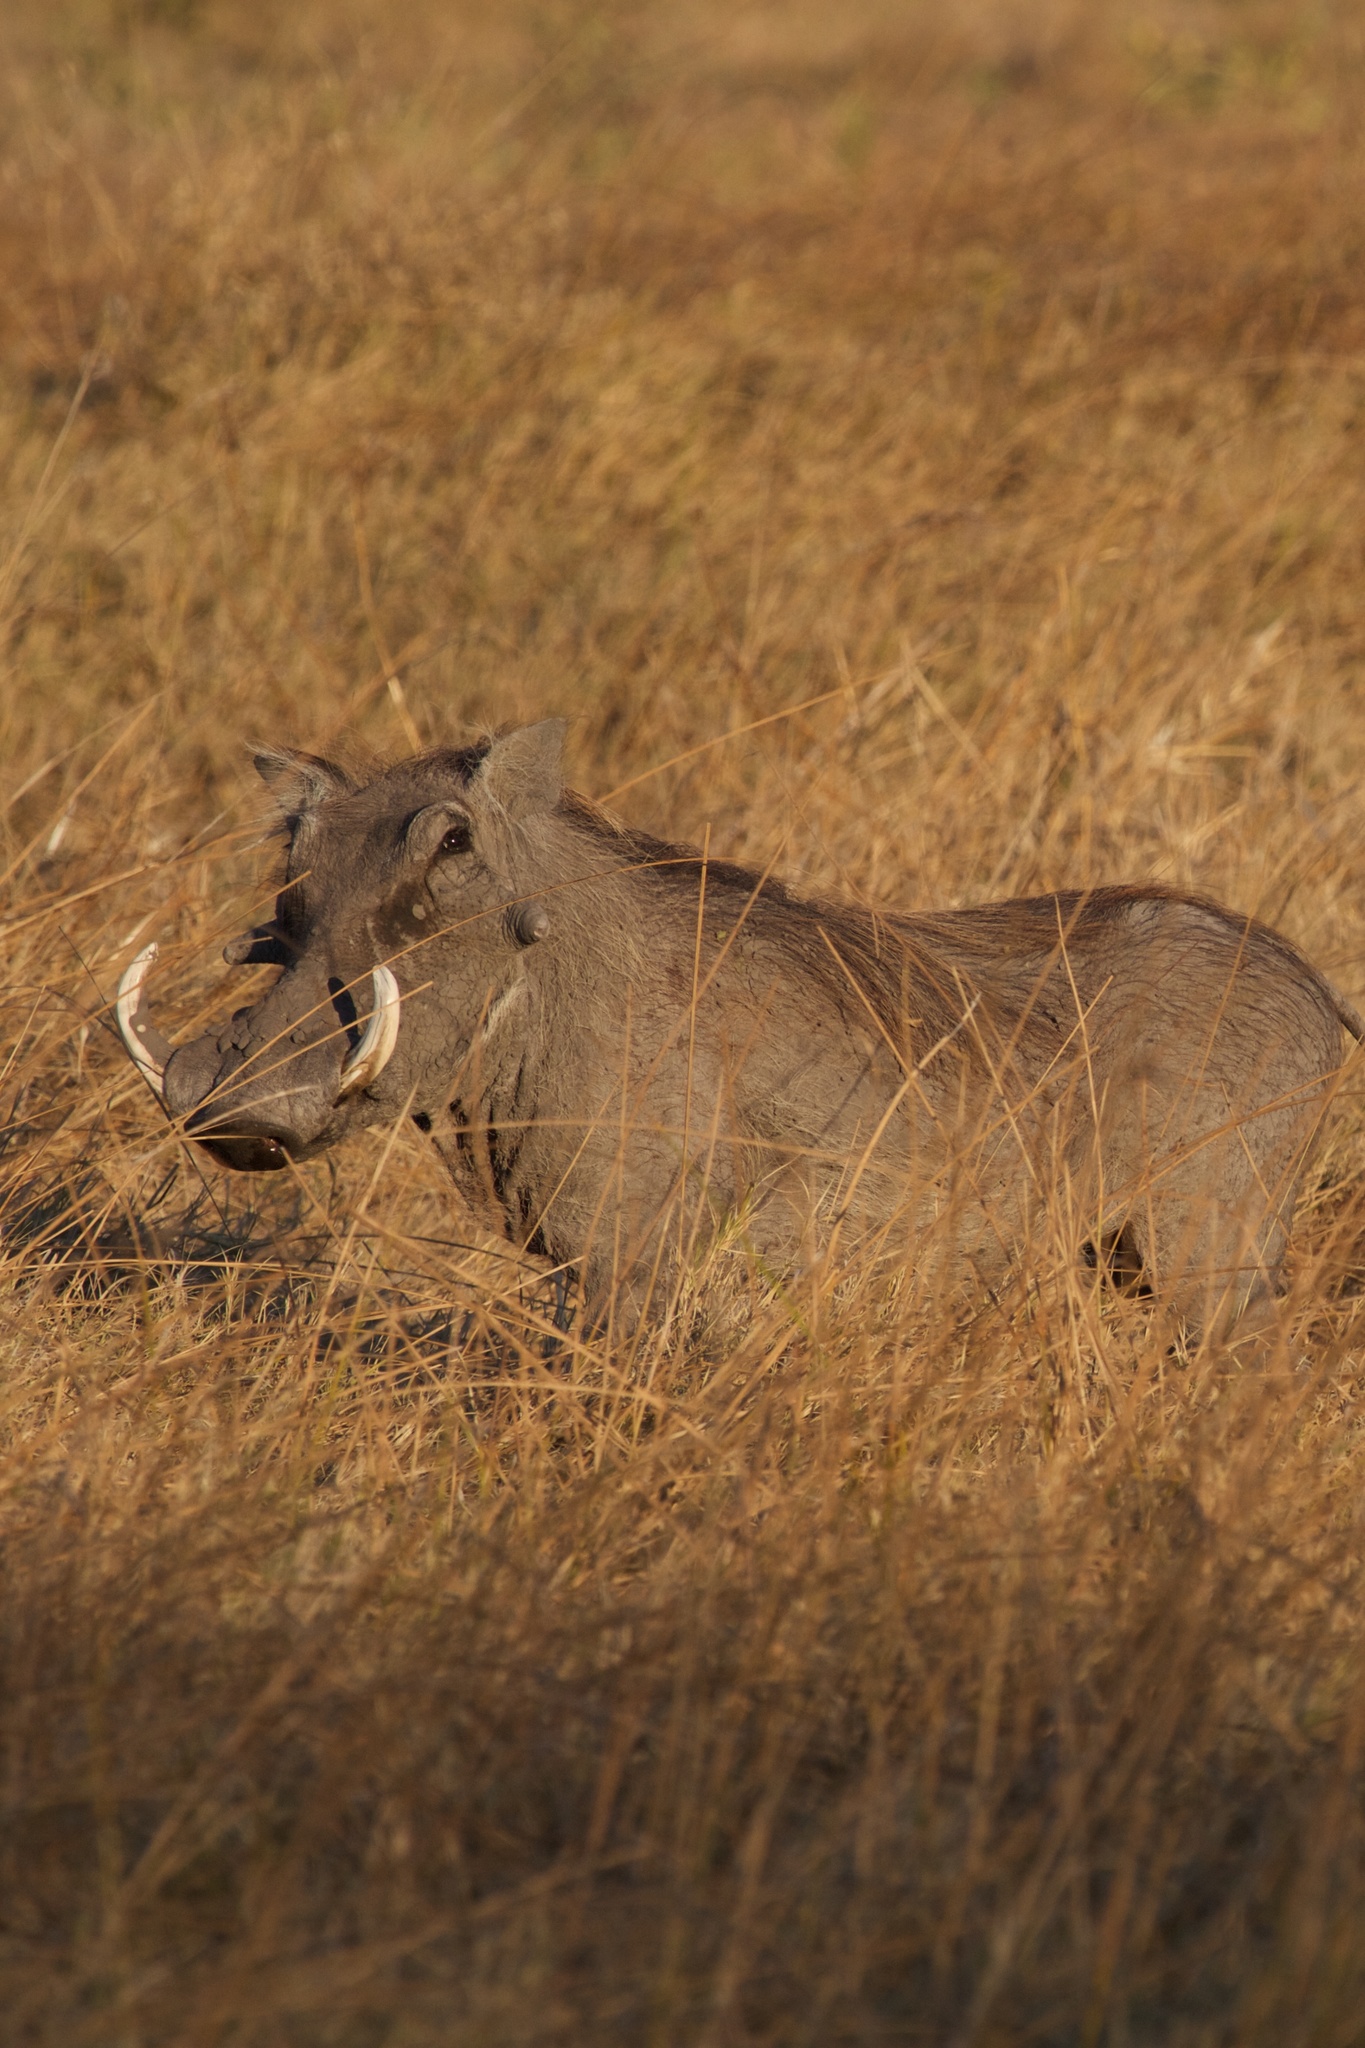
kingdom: Animalia
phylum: Chordata
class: Mammalia
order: Artiodactyla
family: Suidae
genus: Phacochoerus
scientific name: Phacochoerus africanus
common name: Common warthog
